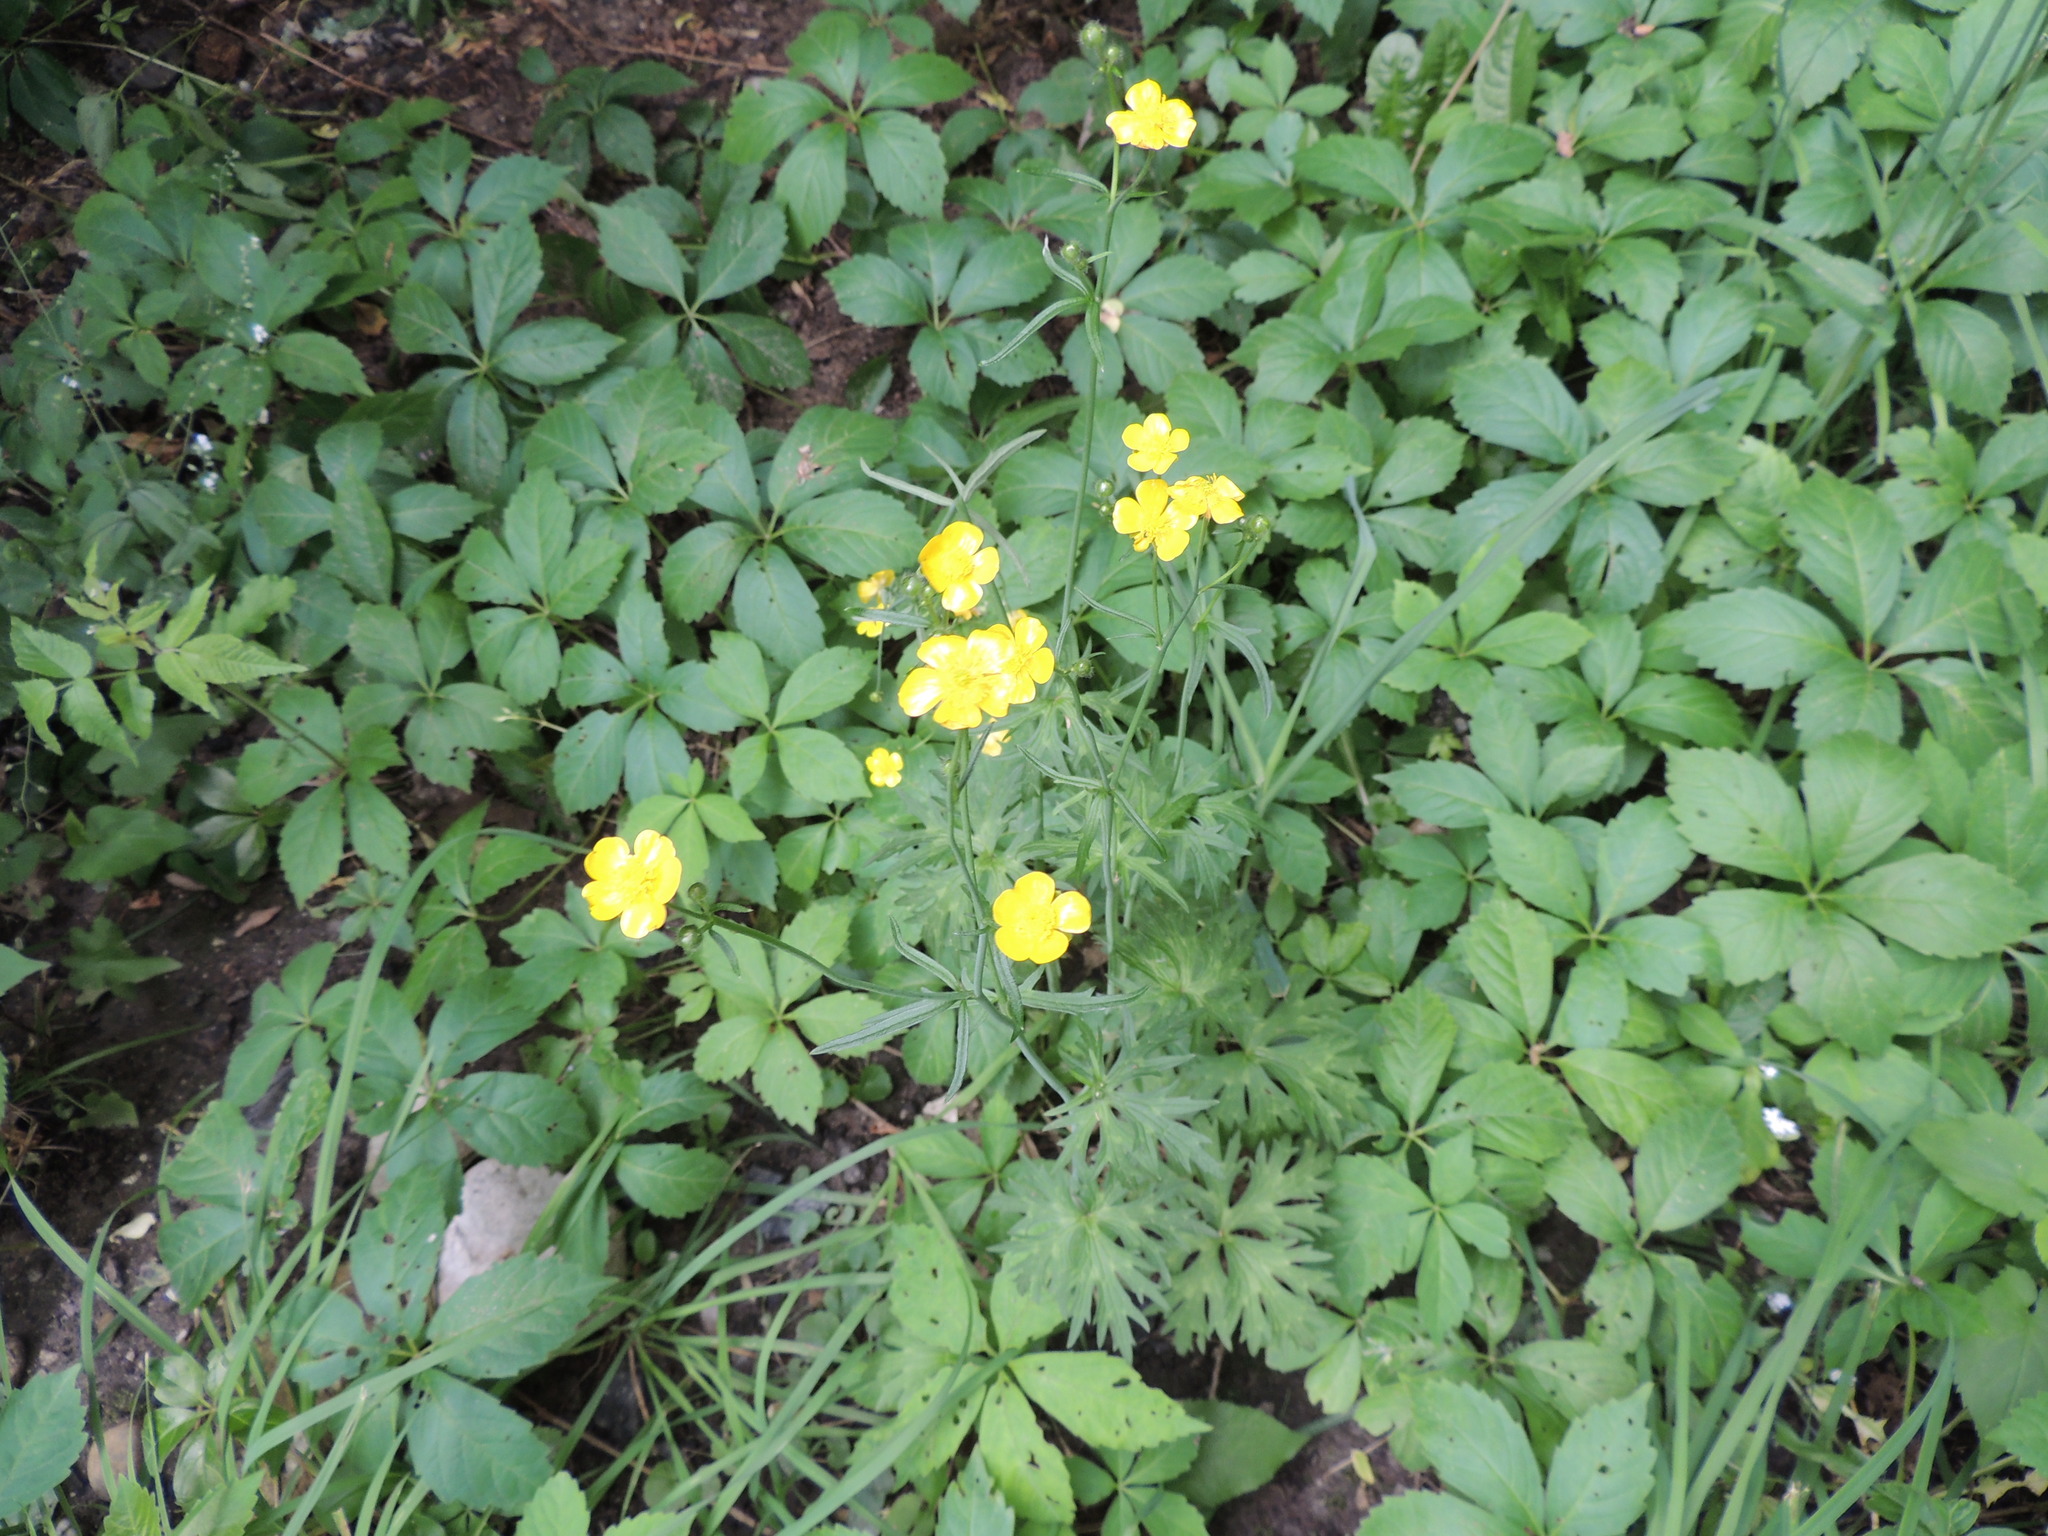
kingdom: Plantae
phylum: Tracheophyta
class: Magnoliopsida
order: Ranunculales
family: Ranunculaceae
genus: Ranunculus
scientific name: Ranunculus acris
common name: Meadow buttercup
